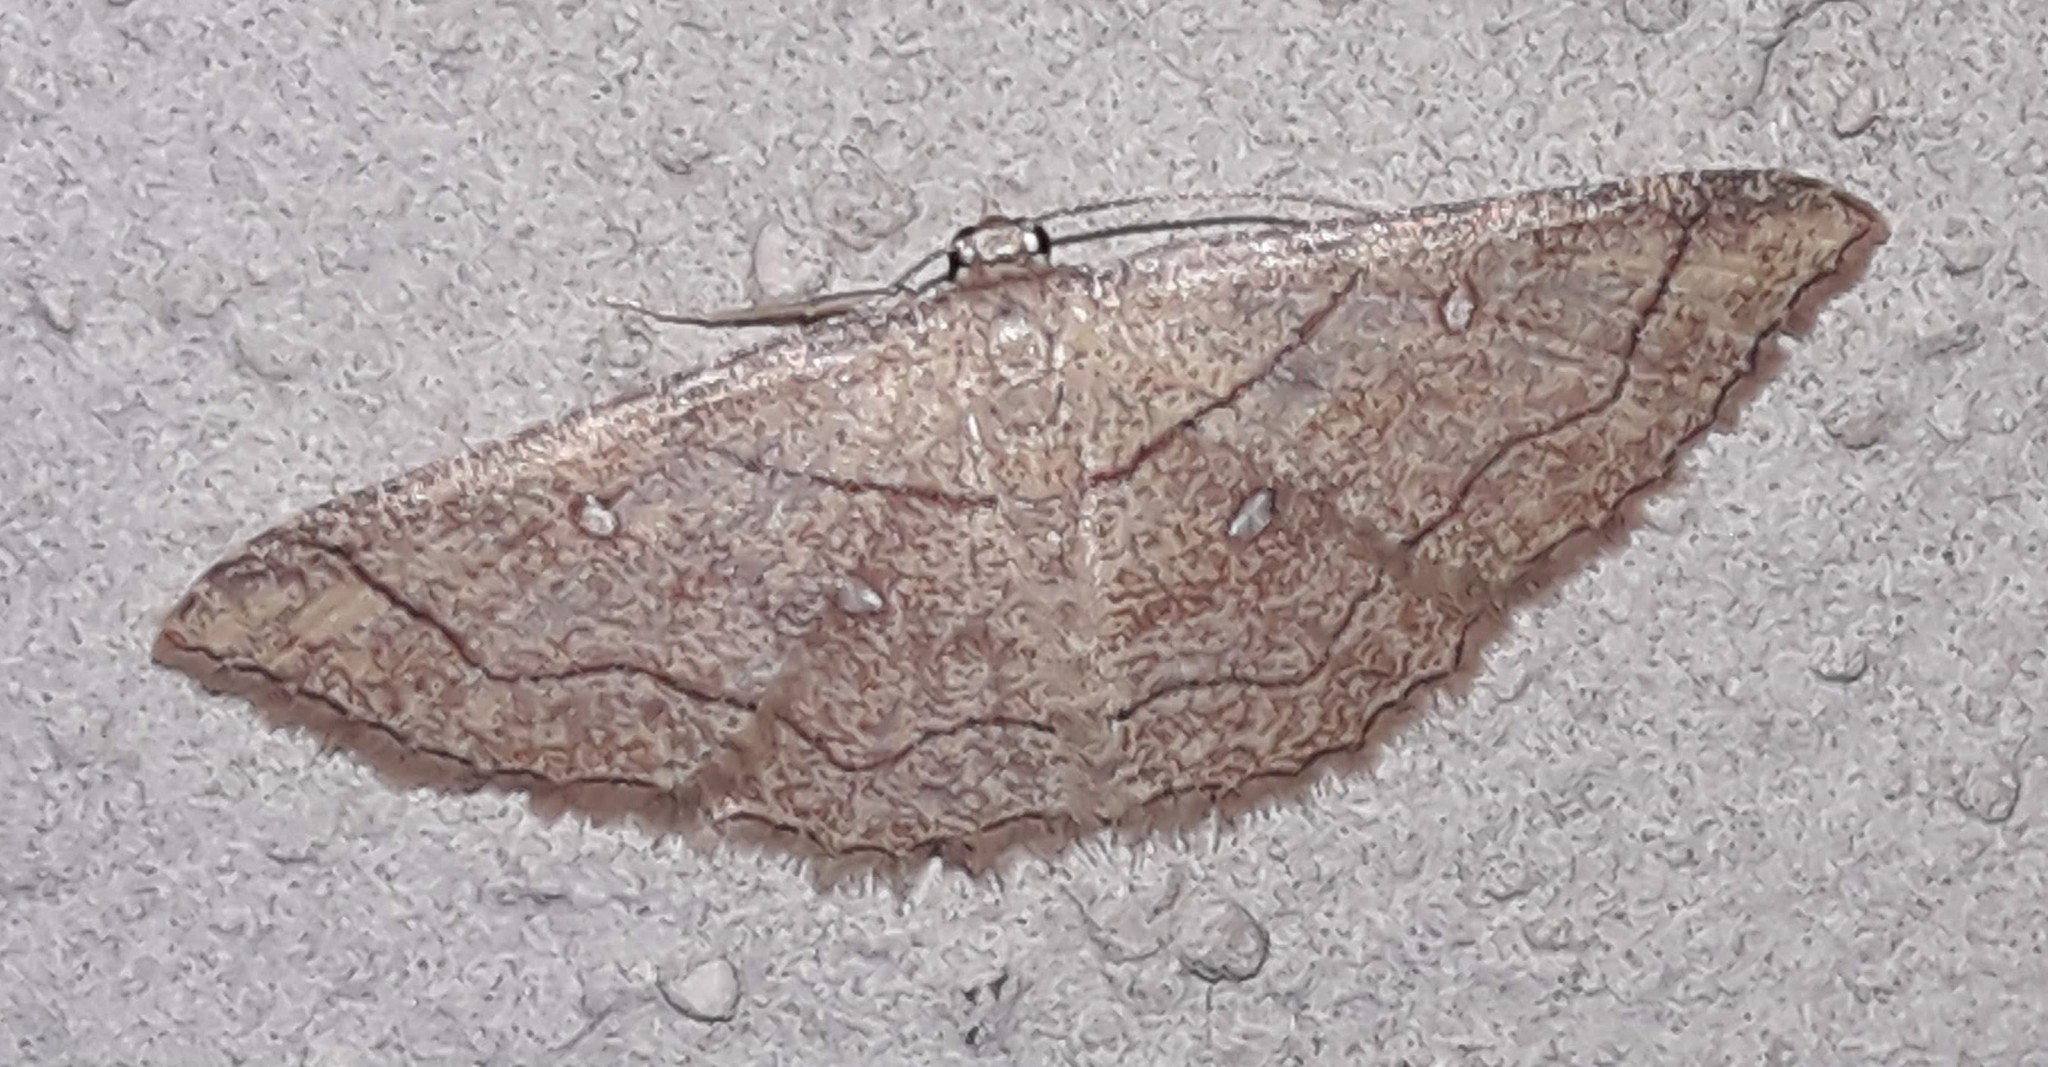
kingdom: Animalia
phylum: Arthropoda
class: Insecta
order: Lepidoptera
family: Geometridae
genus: Cyclophora
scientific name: Cyclophora coecaria
